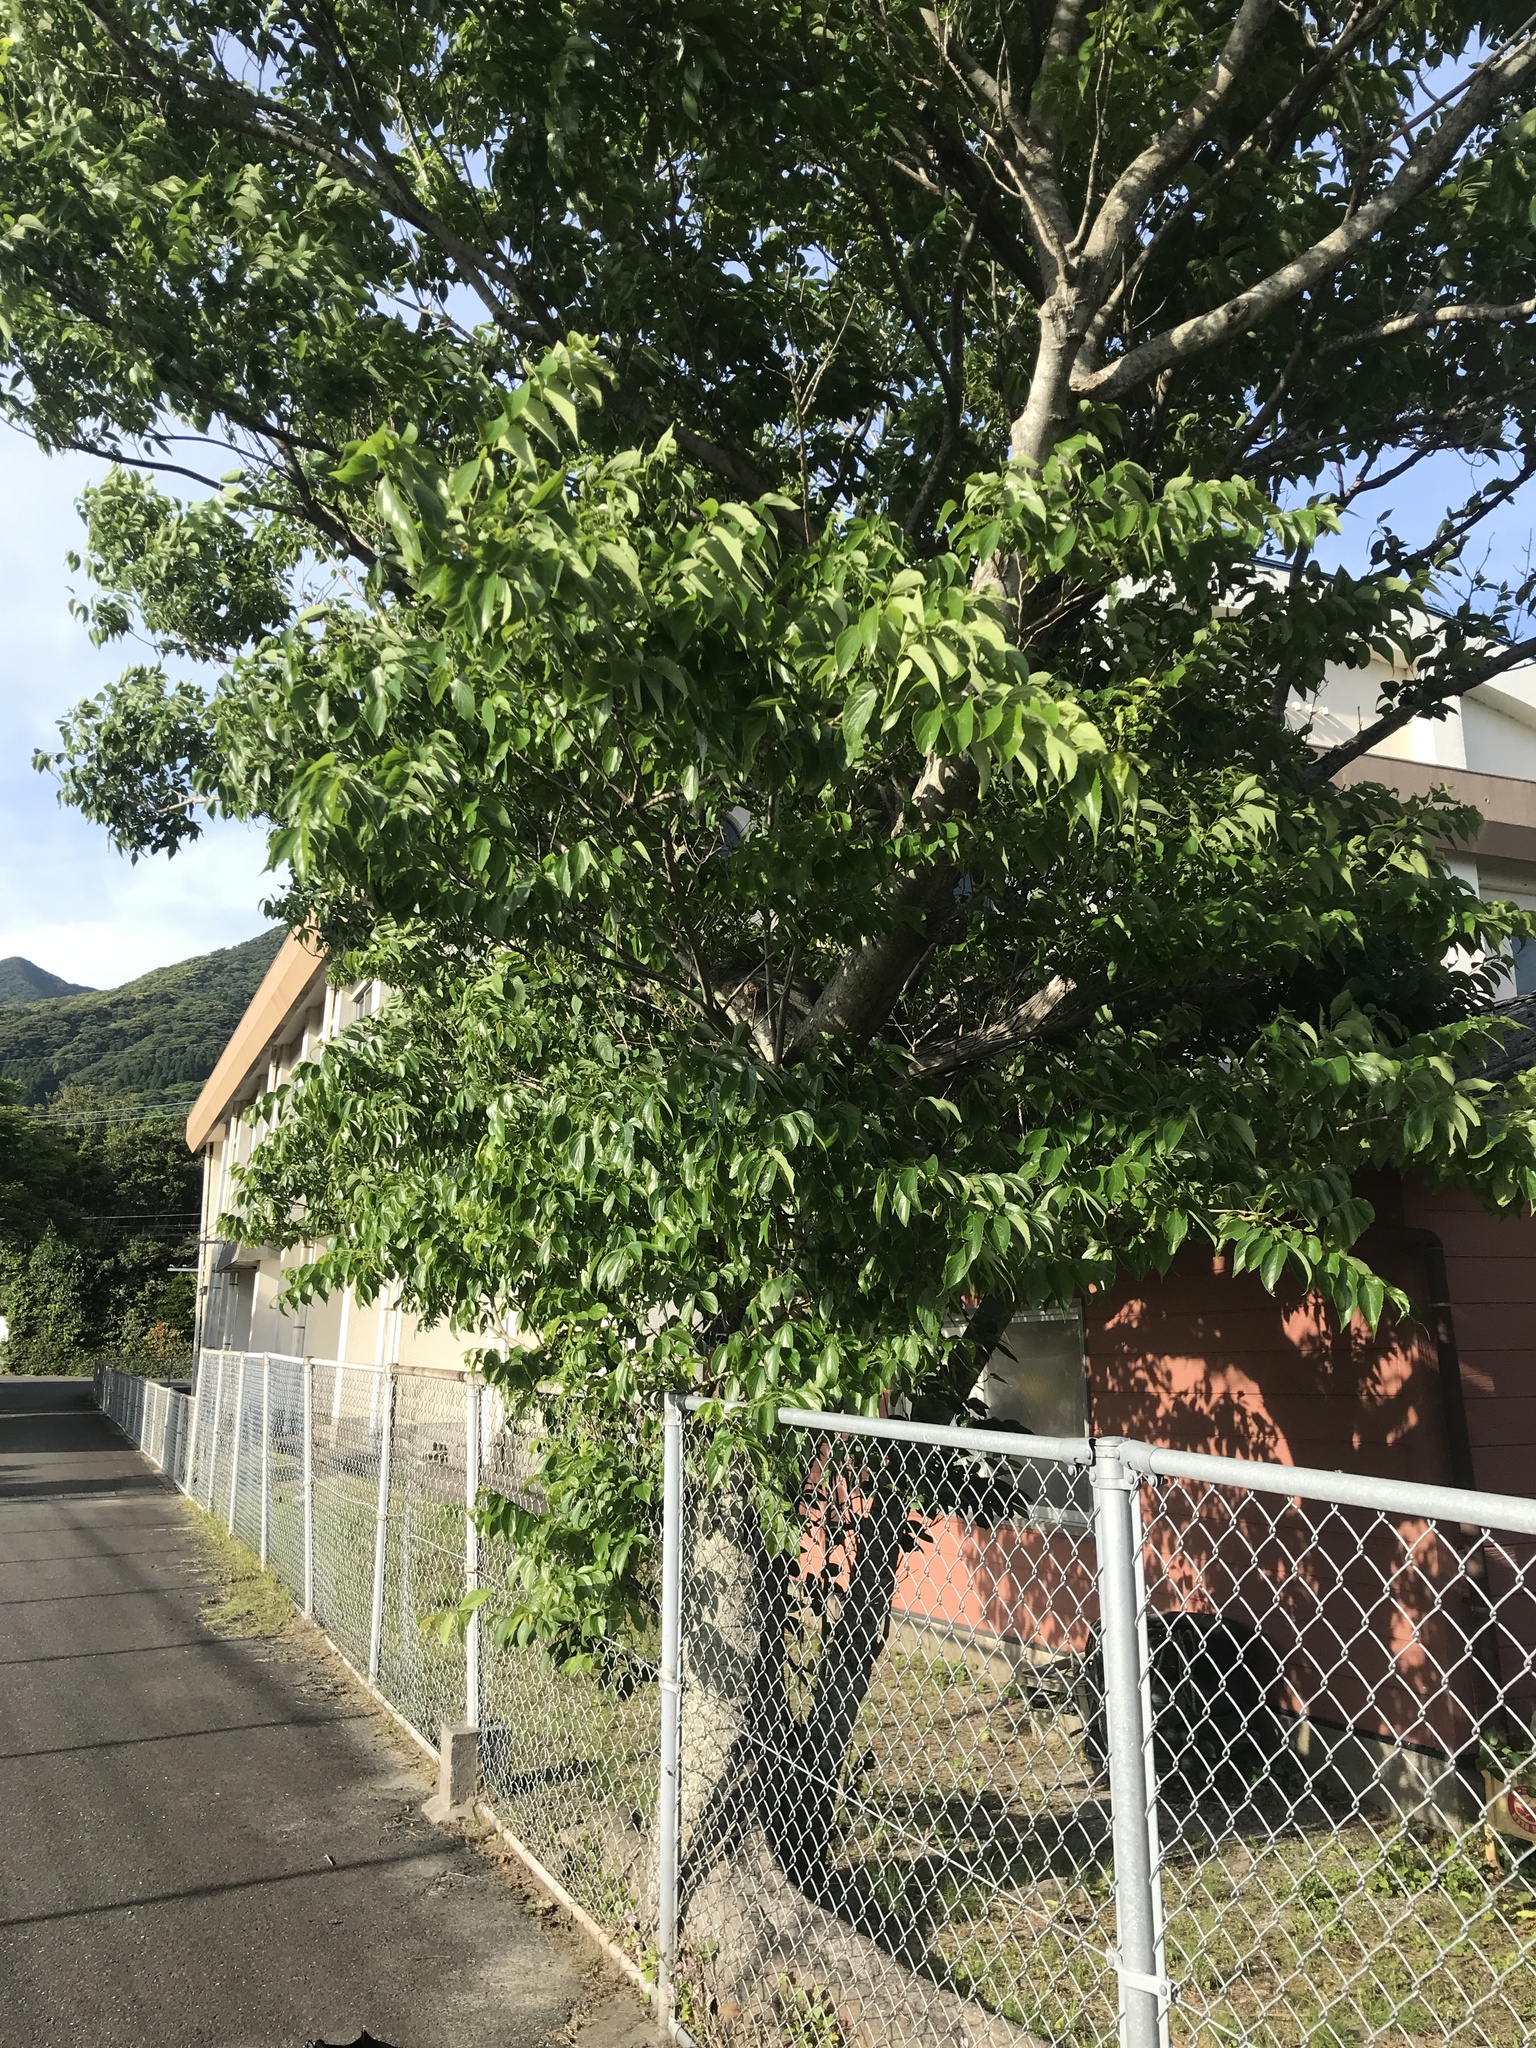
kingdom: Plantae
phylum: Tracheophyta
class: Magnoliopsida
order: Rosales
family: Cannabaceae
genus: Celtis
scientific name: Celtis boninensis
